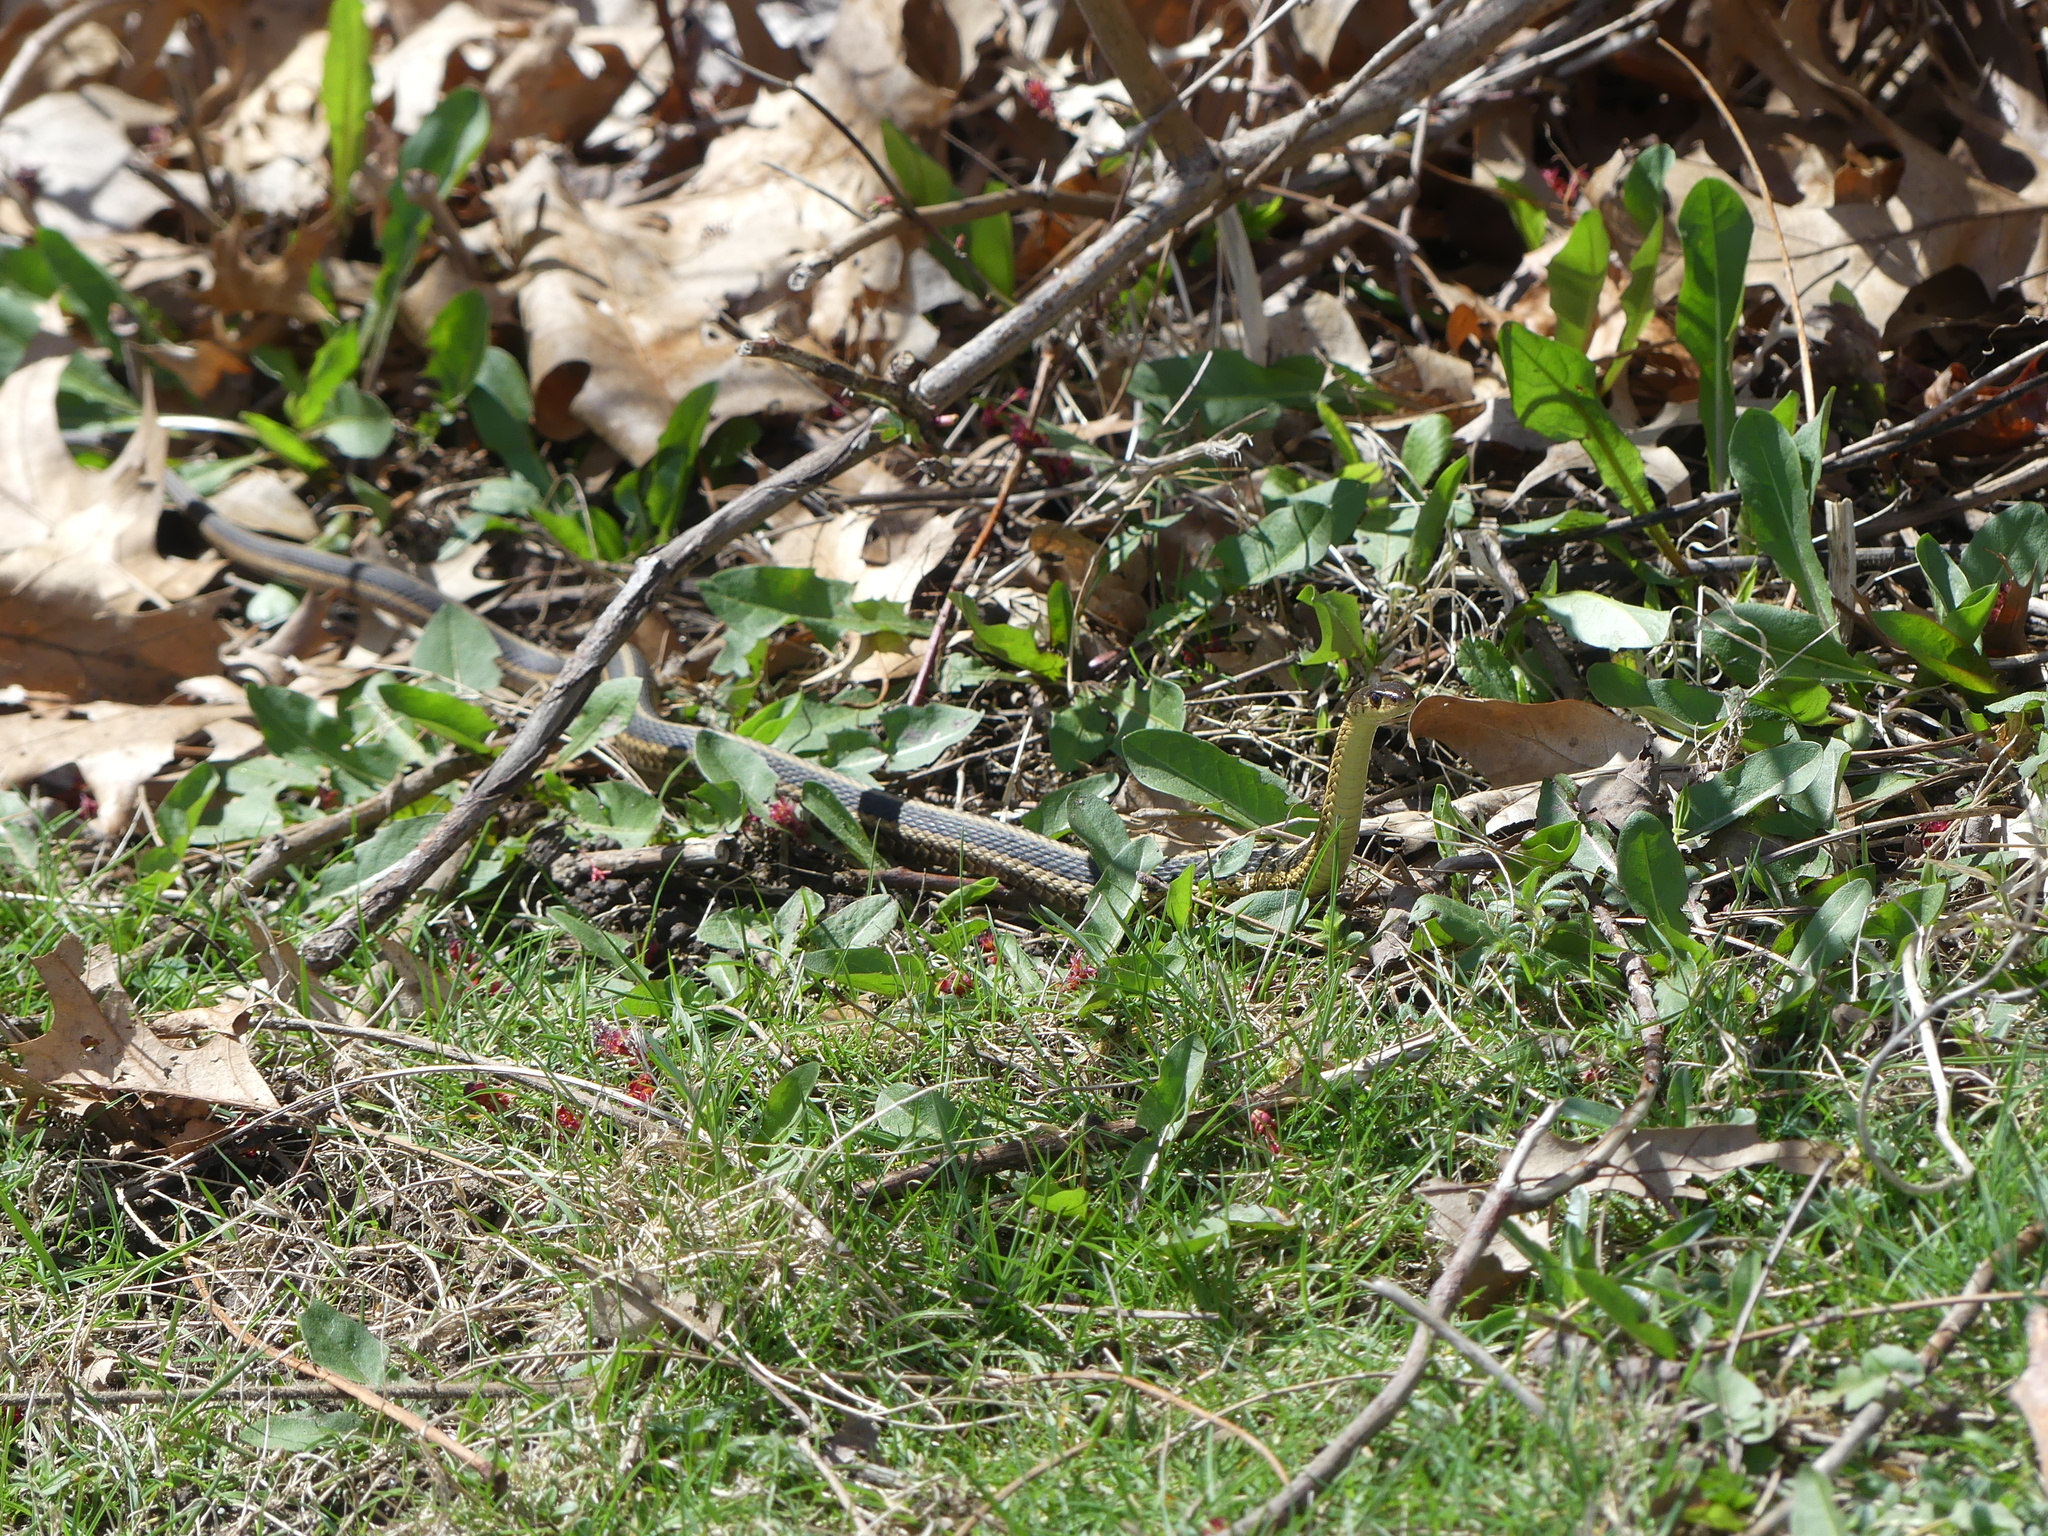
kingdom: Animalia
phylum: Chordata
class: Squamata
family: Colubridae
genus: Thamnophis
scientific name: Thamnophis sirtalis
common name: Common garter snake
